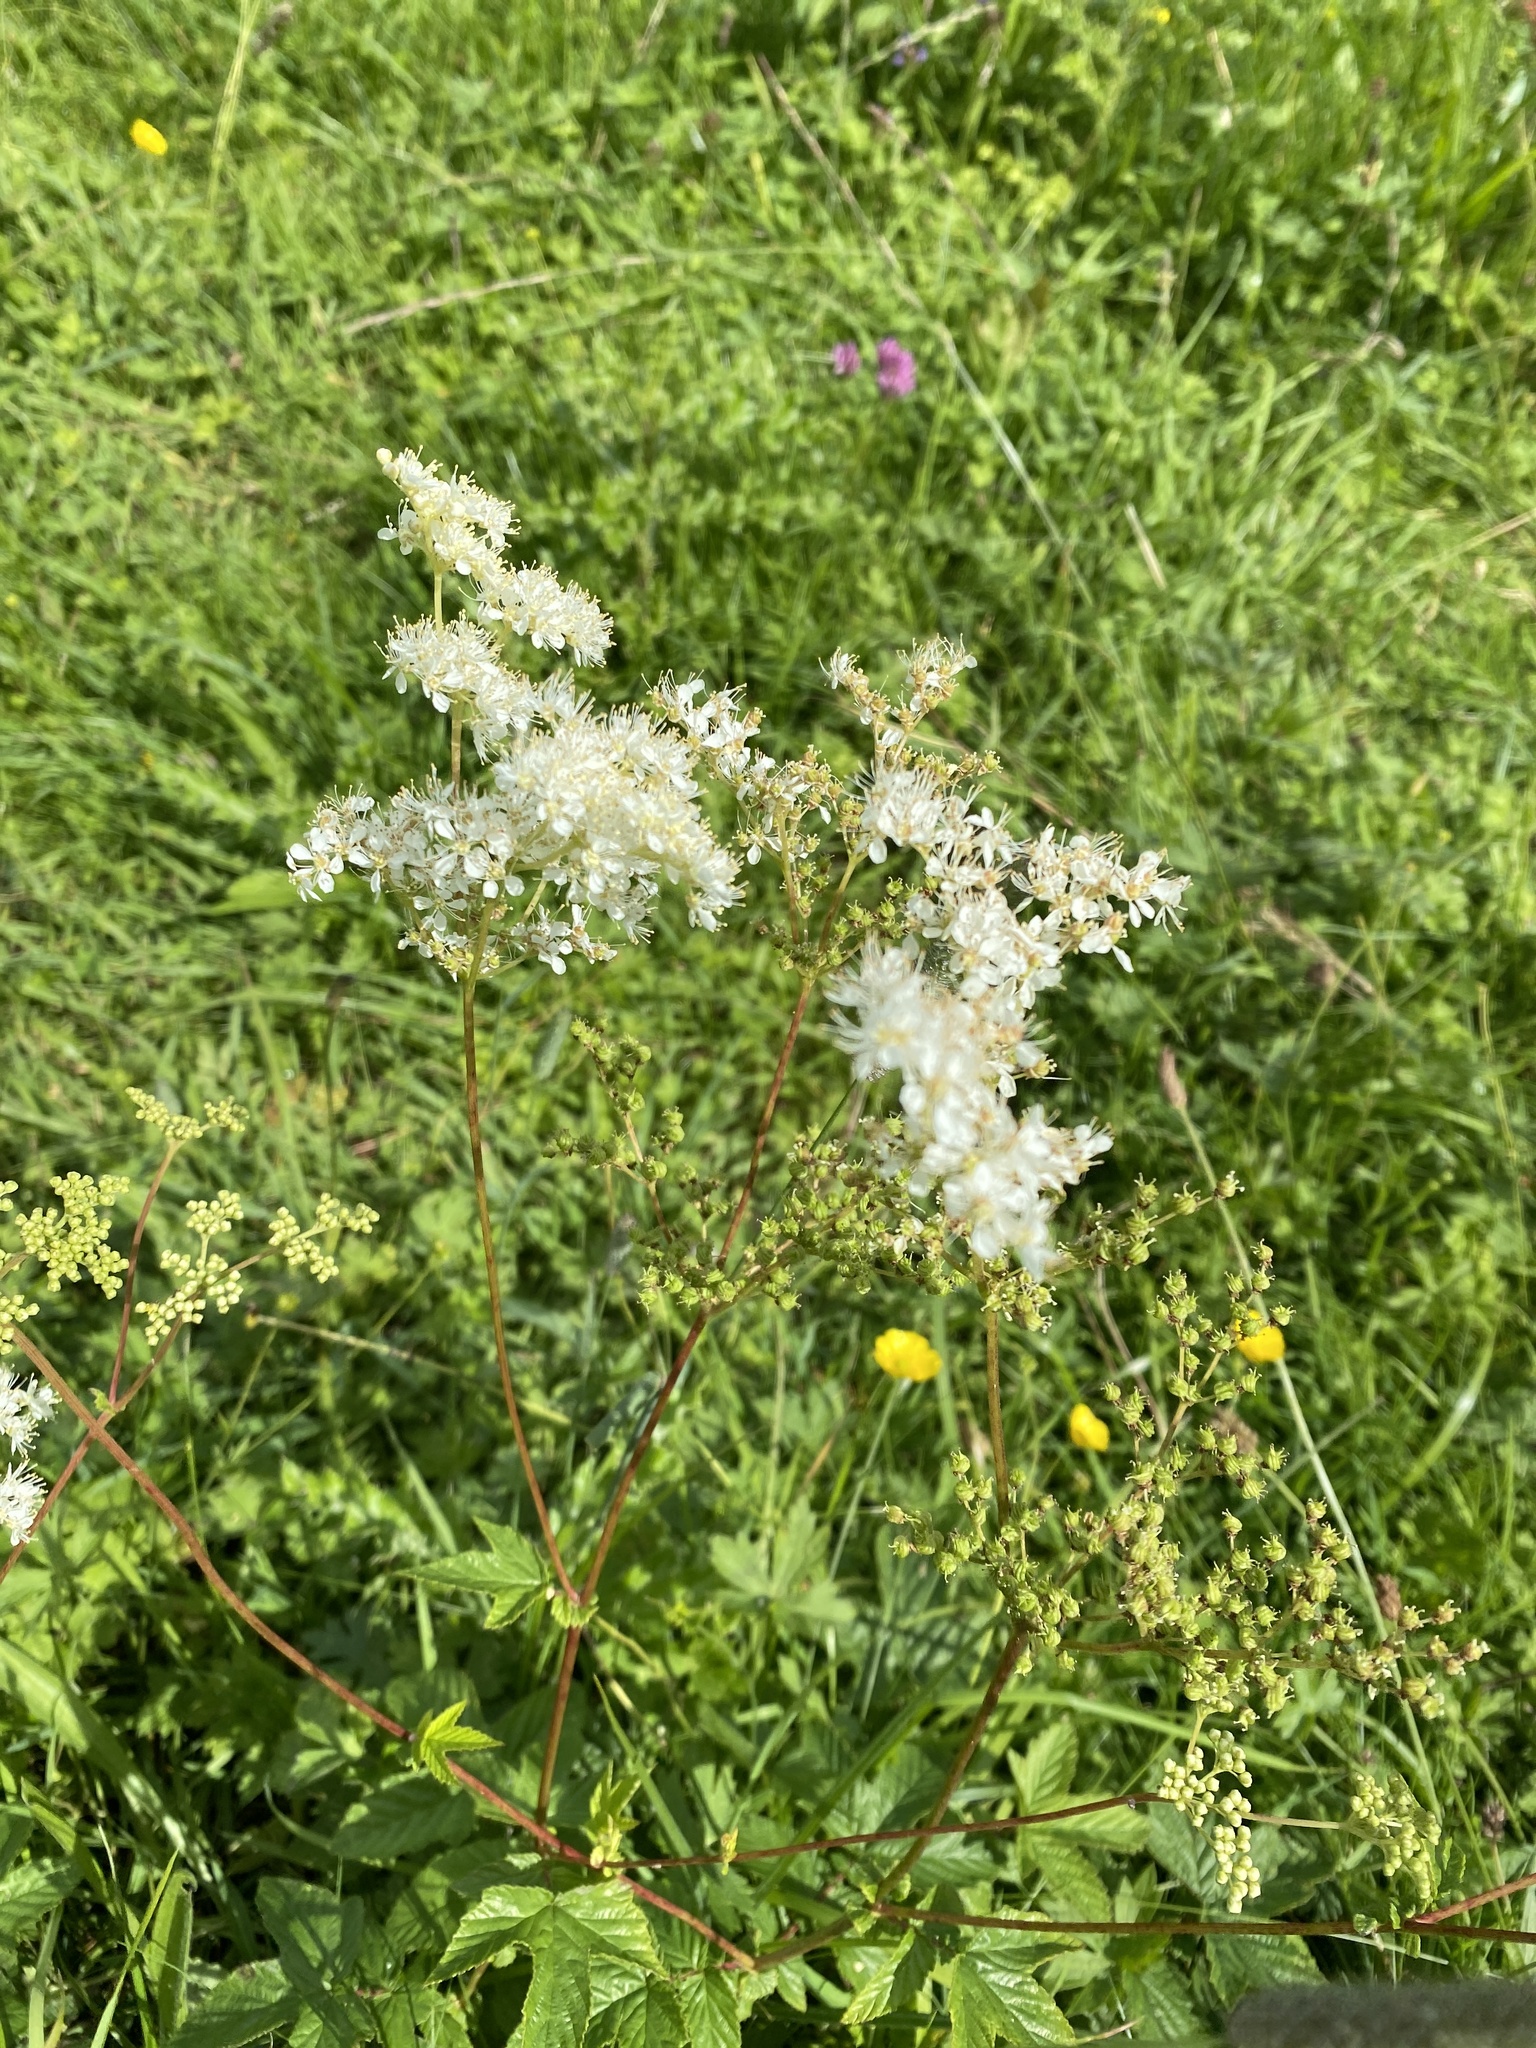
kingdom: Plantae
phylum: Tracheophyta
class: Magnoliopsida
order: Rosales
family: Rosaceae
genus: Filipendula
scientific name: Filipendula ulmaria
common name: Meadowsweet
